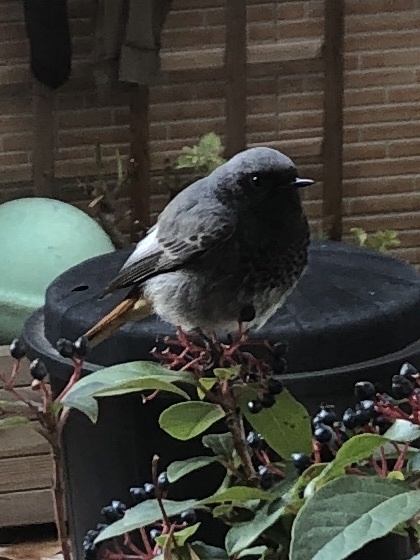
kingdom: Animalia
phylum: Chordata
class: Aves
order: Passeriformes
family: Muscicapidae
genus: Phoenicurus
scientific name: Phoenicurus ochruros
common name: Black redstart
